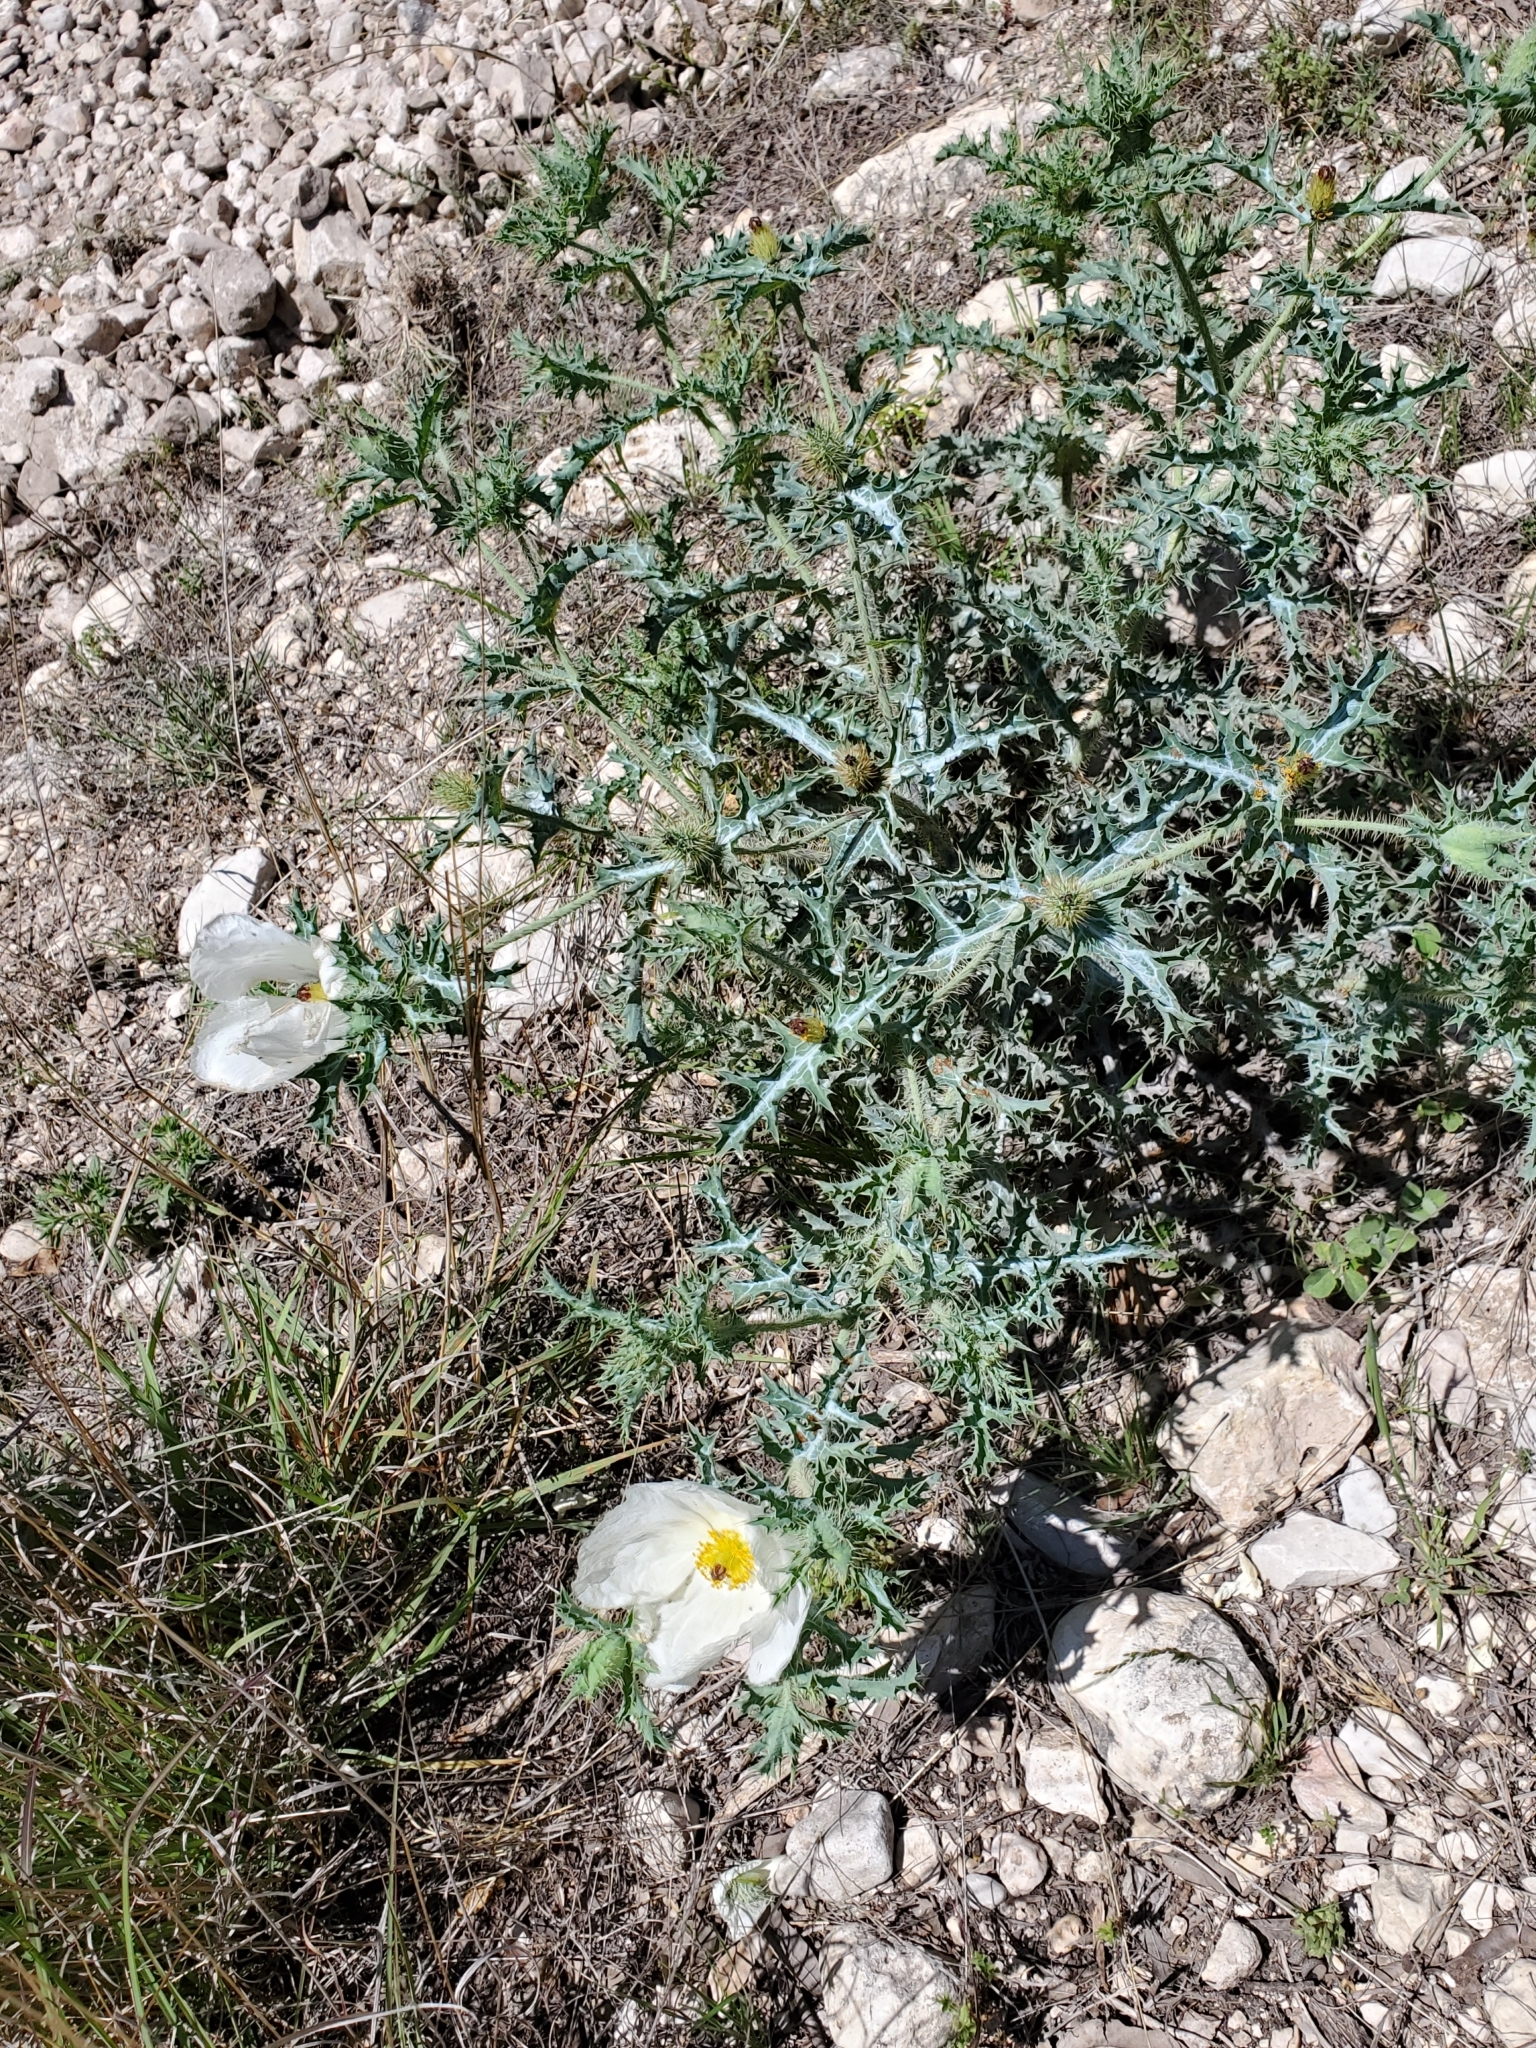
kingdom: Plantae
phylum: Tracheophyta
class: Magnoliopsida
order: Ranunculales
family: Papaveraceae
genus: Argemone
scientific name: Argemone albiflora
